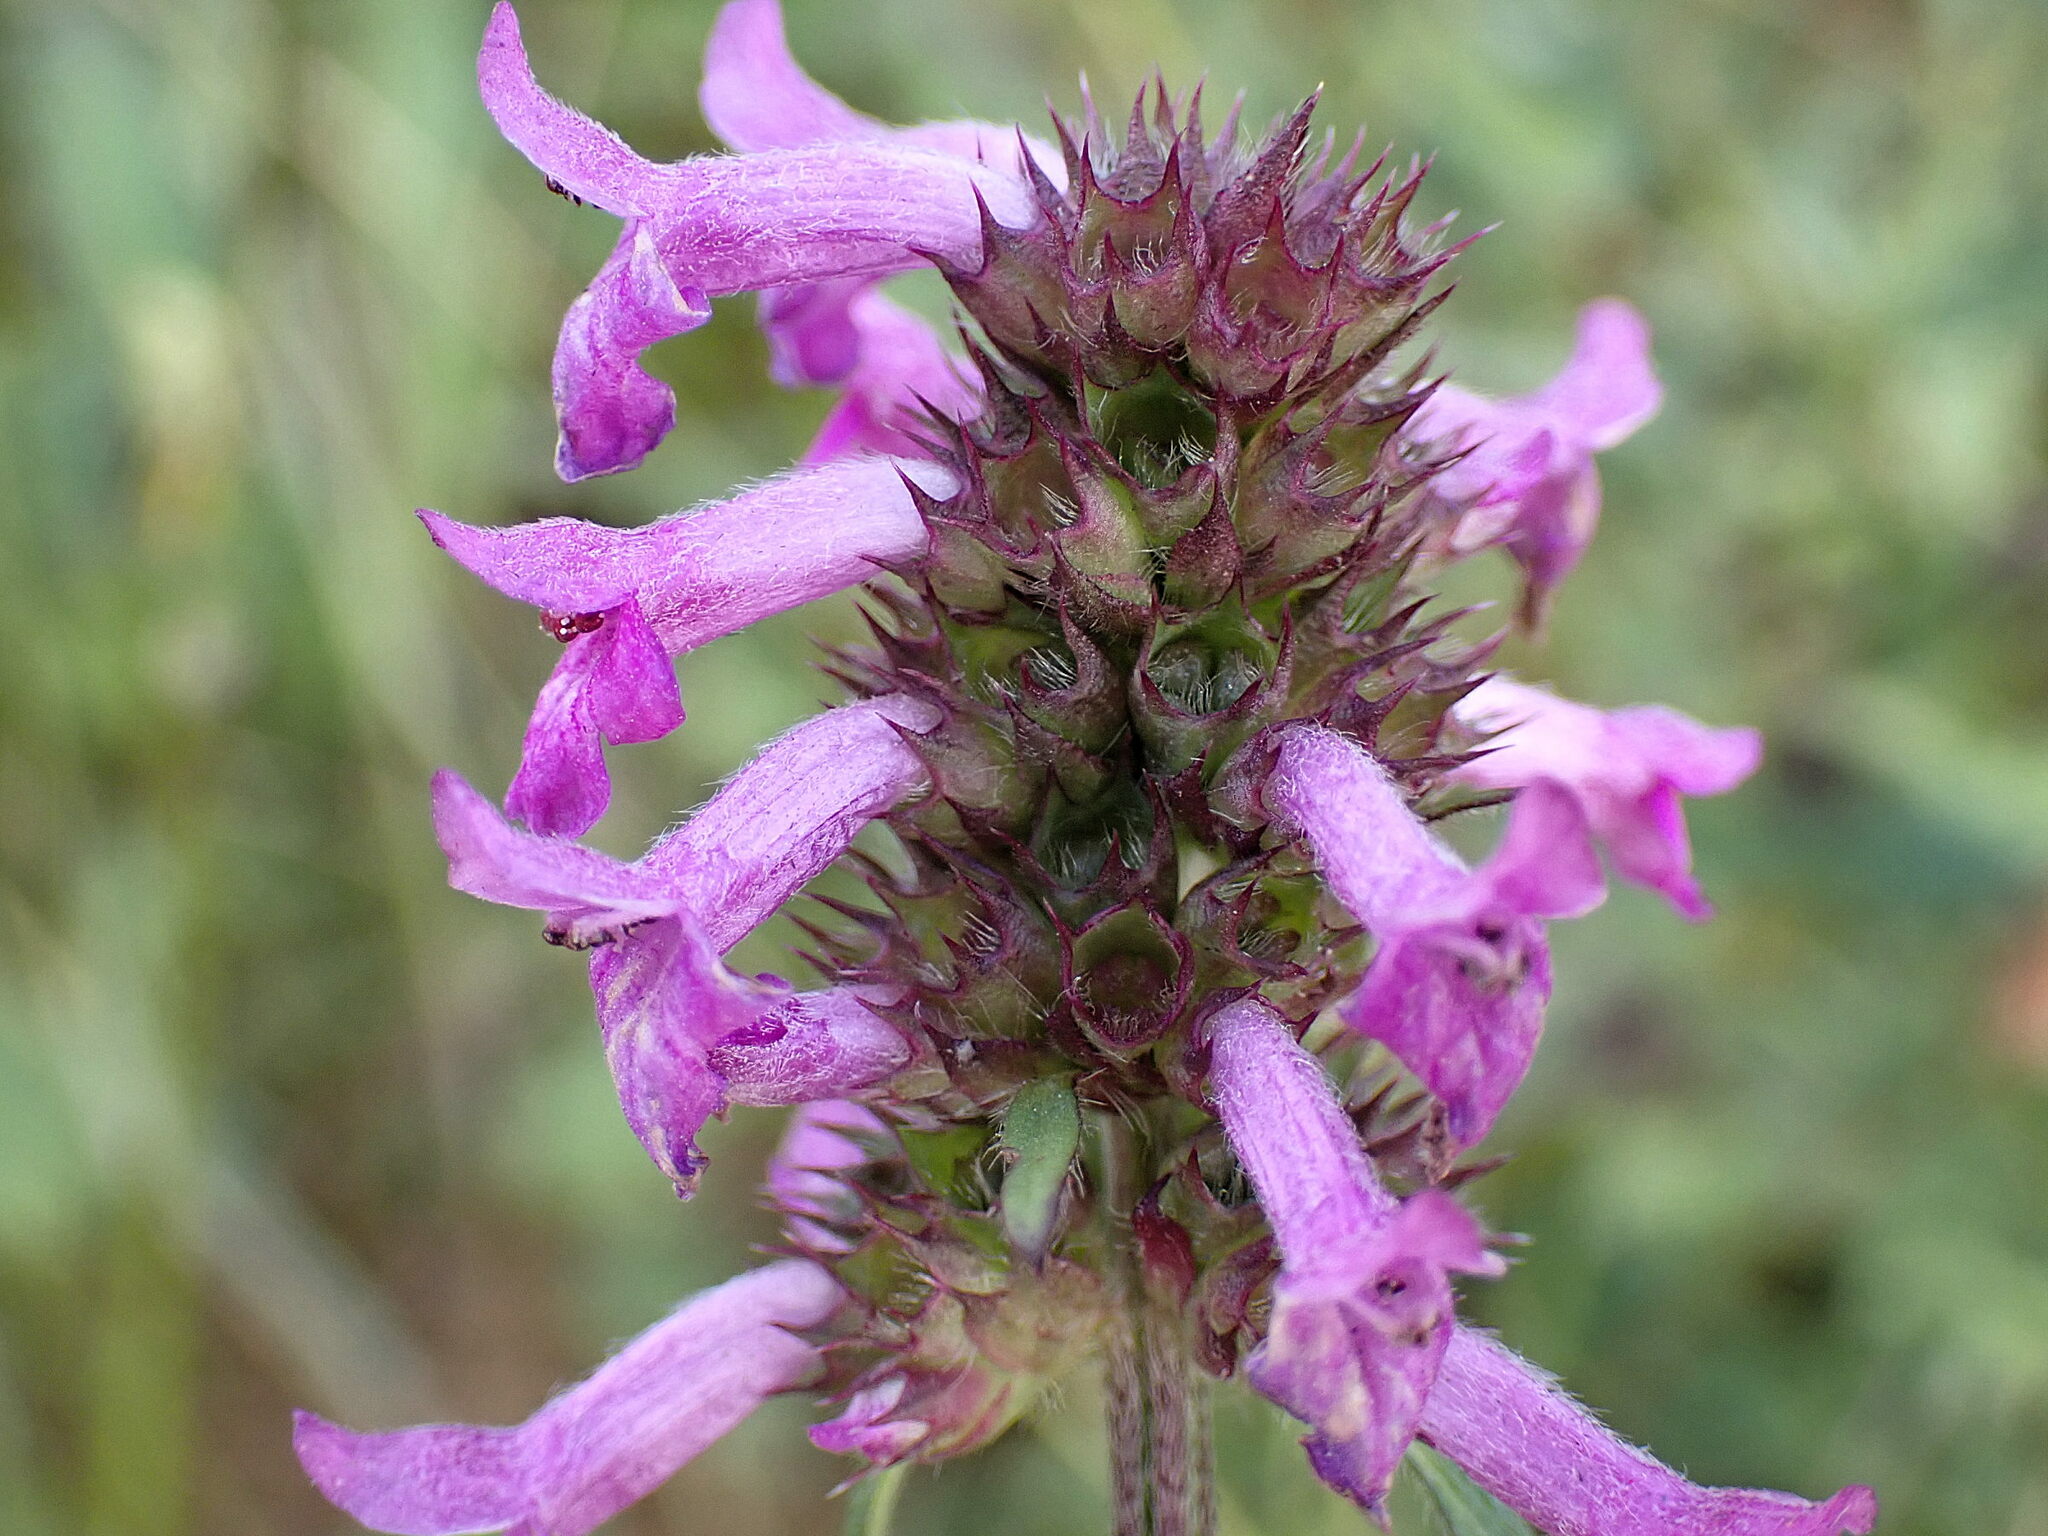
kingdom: Plantae
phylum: Tracheophyta
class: Magnoliopsida
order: Lamiales
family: Lamiaceae
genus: Betonica
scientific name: Betonica officinalis
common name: Bishop's-wort
